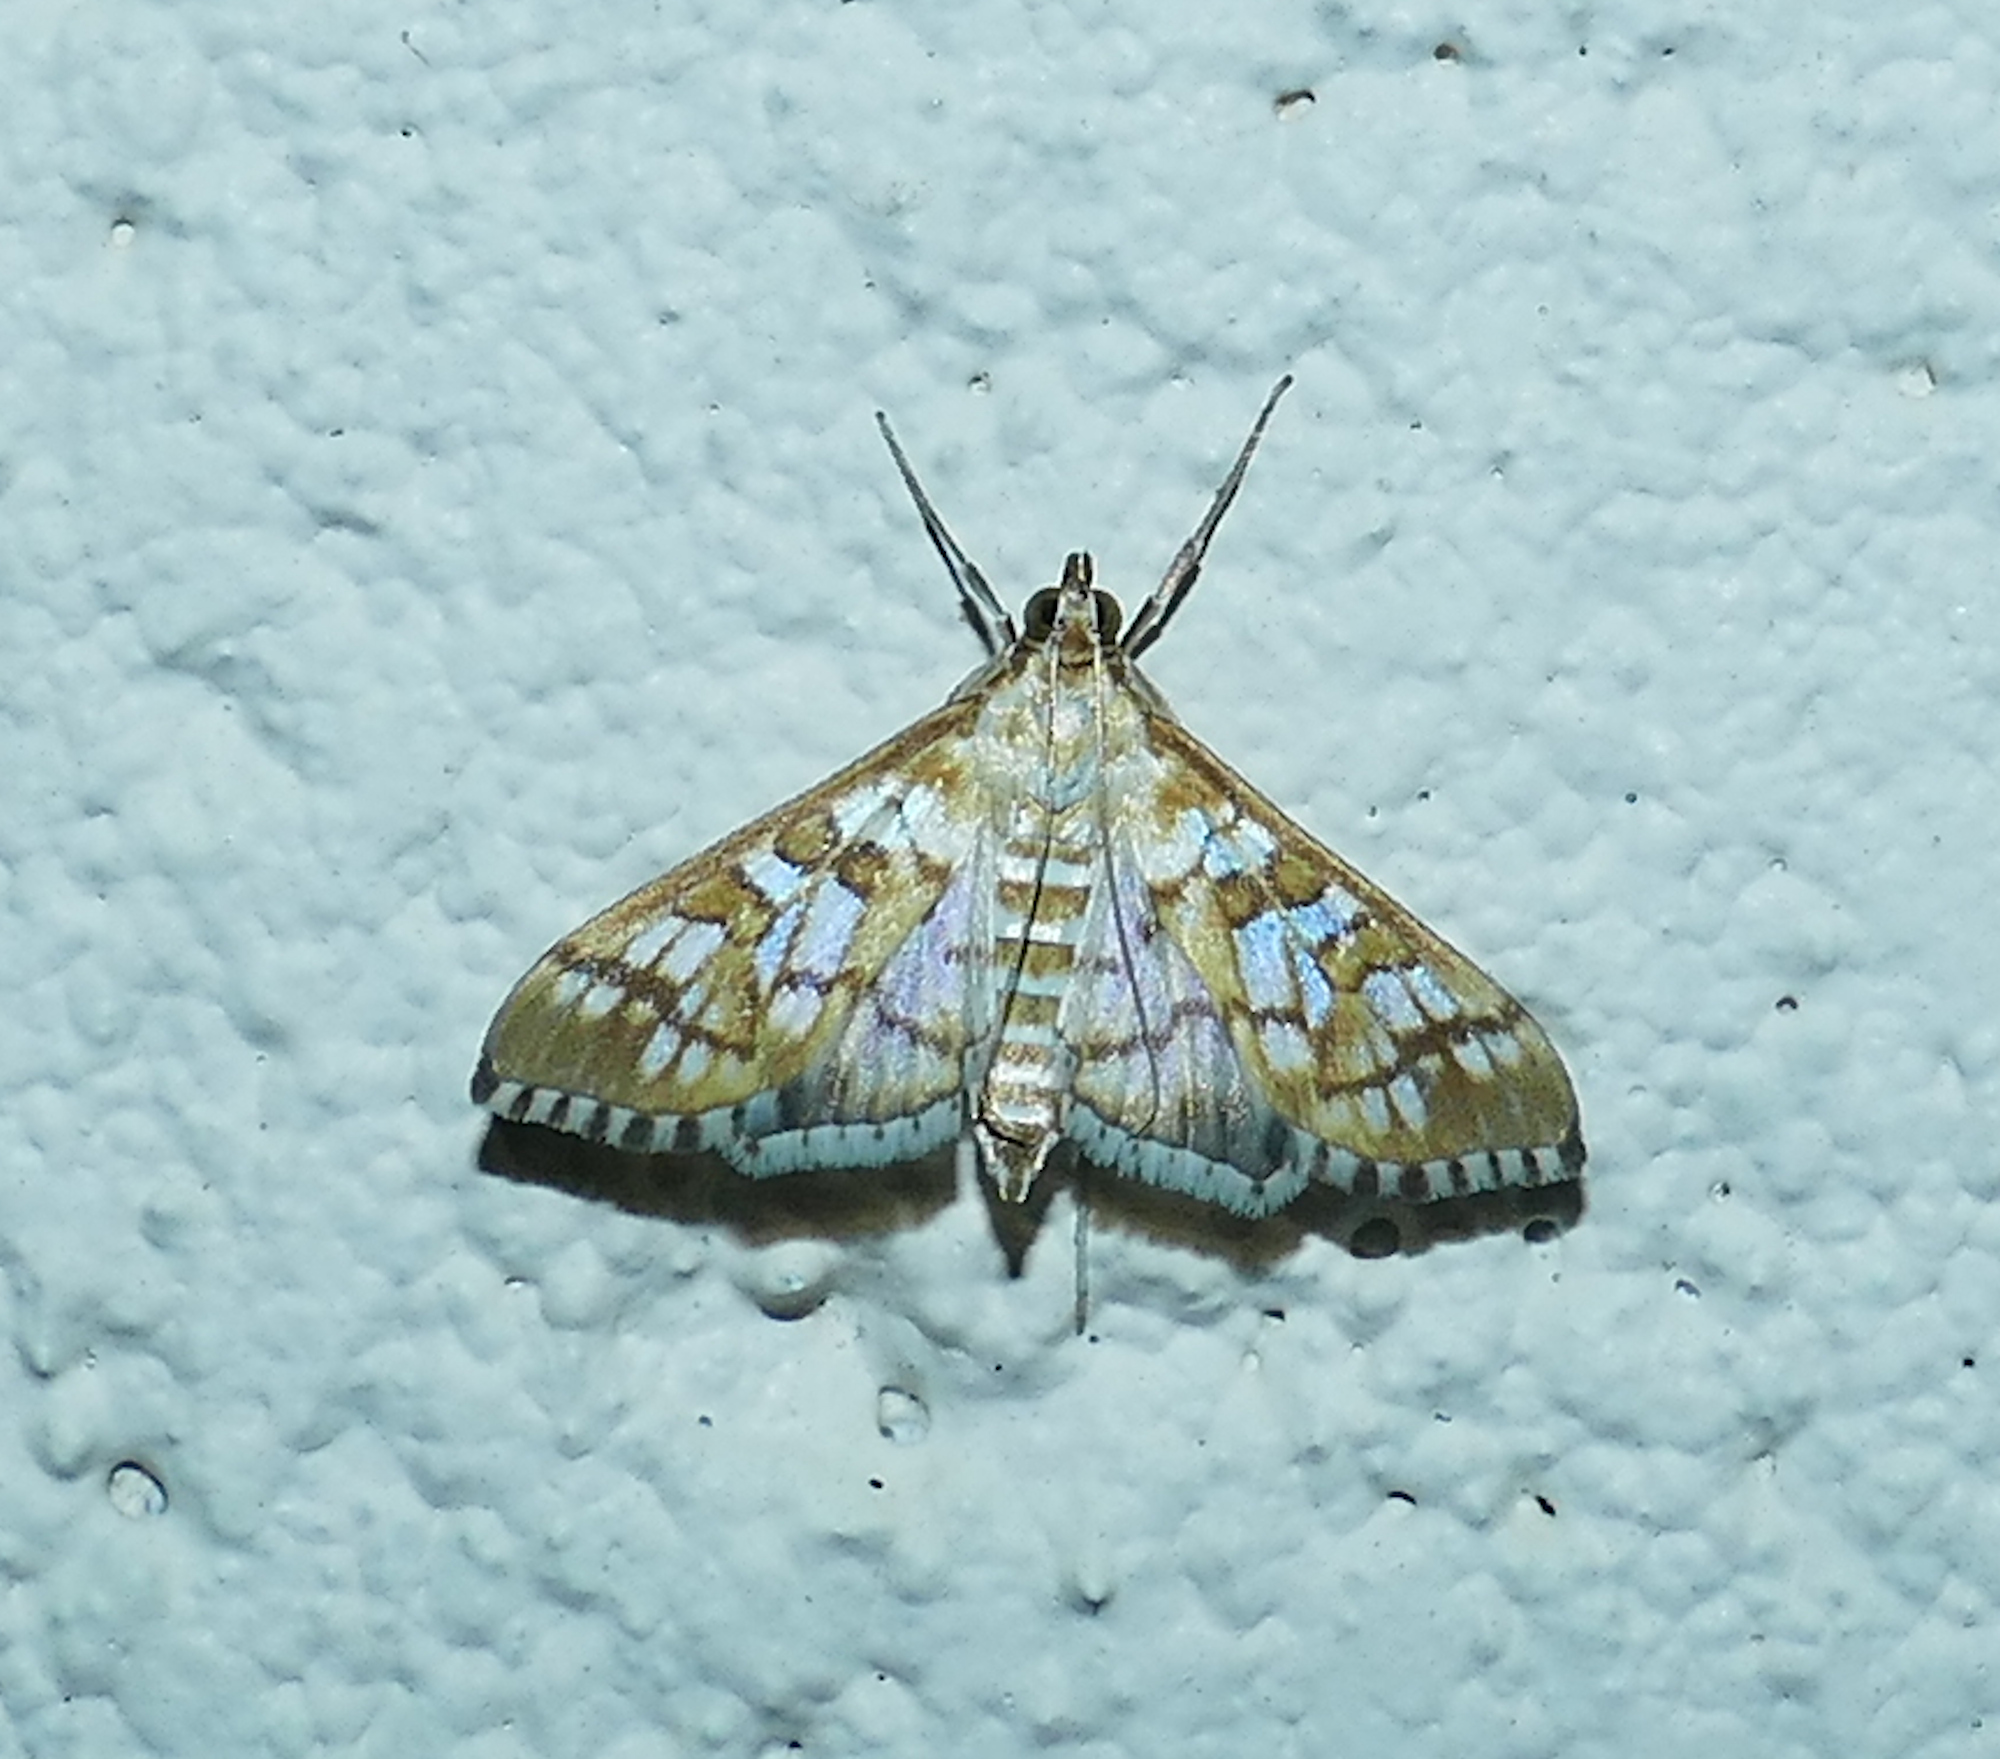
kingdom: Animalia
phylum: Arthropoda
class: Insecta
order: Lepidoptera
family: Crambidae
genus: Epipagis
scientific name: Epipagis fenestralis
